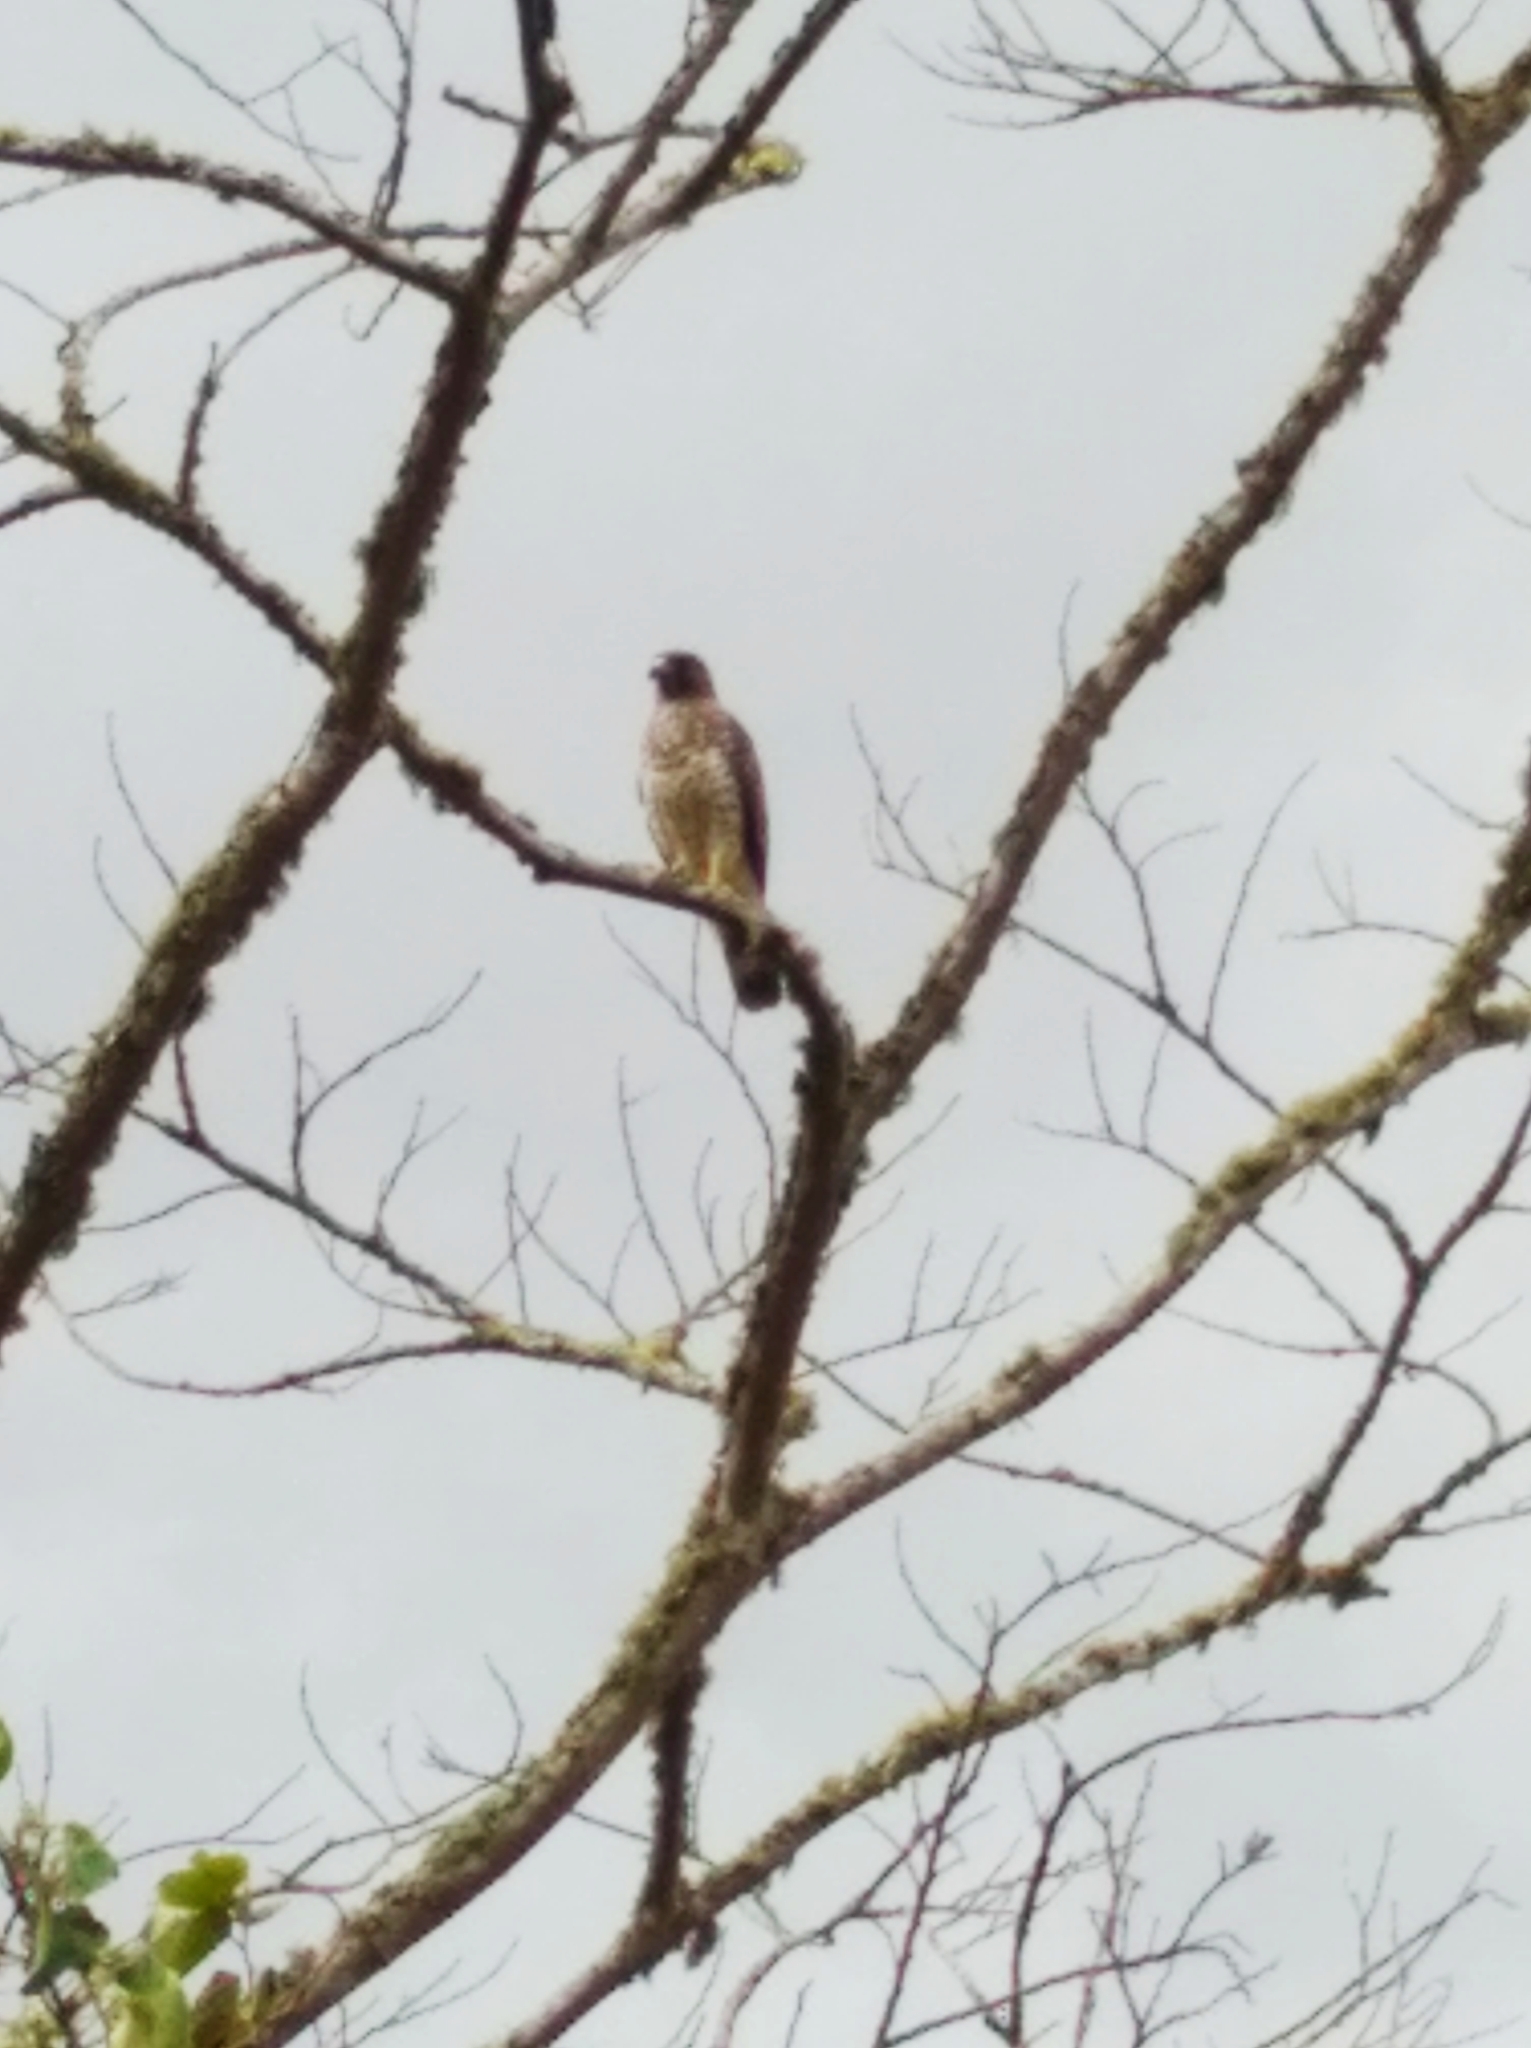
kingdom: Animalia
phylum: Chordata
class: Aves
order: Accipitriformes
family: Accipitridae
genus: Buteo
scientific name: Buteo platypterus
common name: Broad-winged hawk
